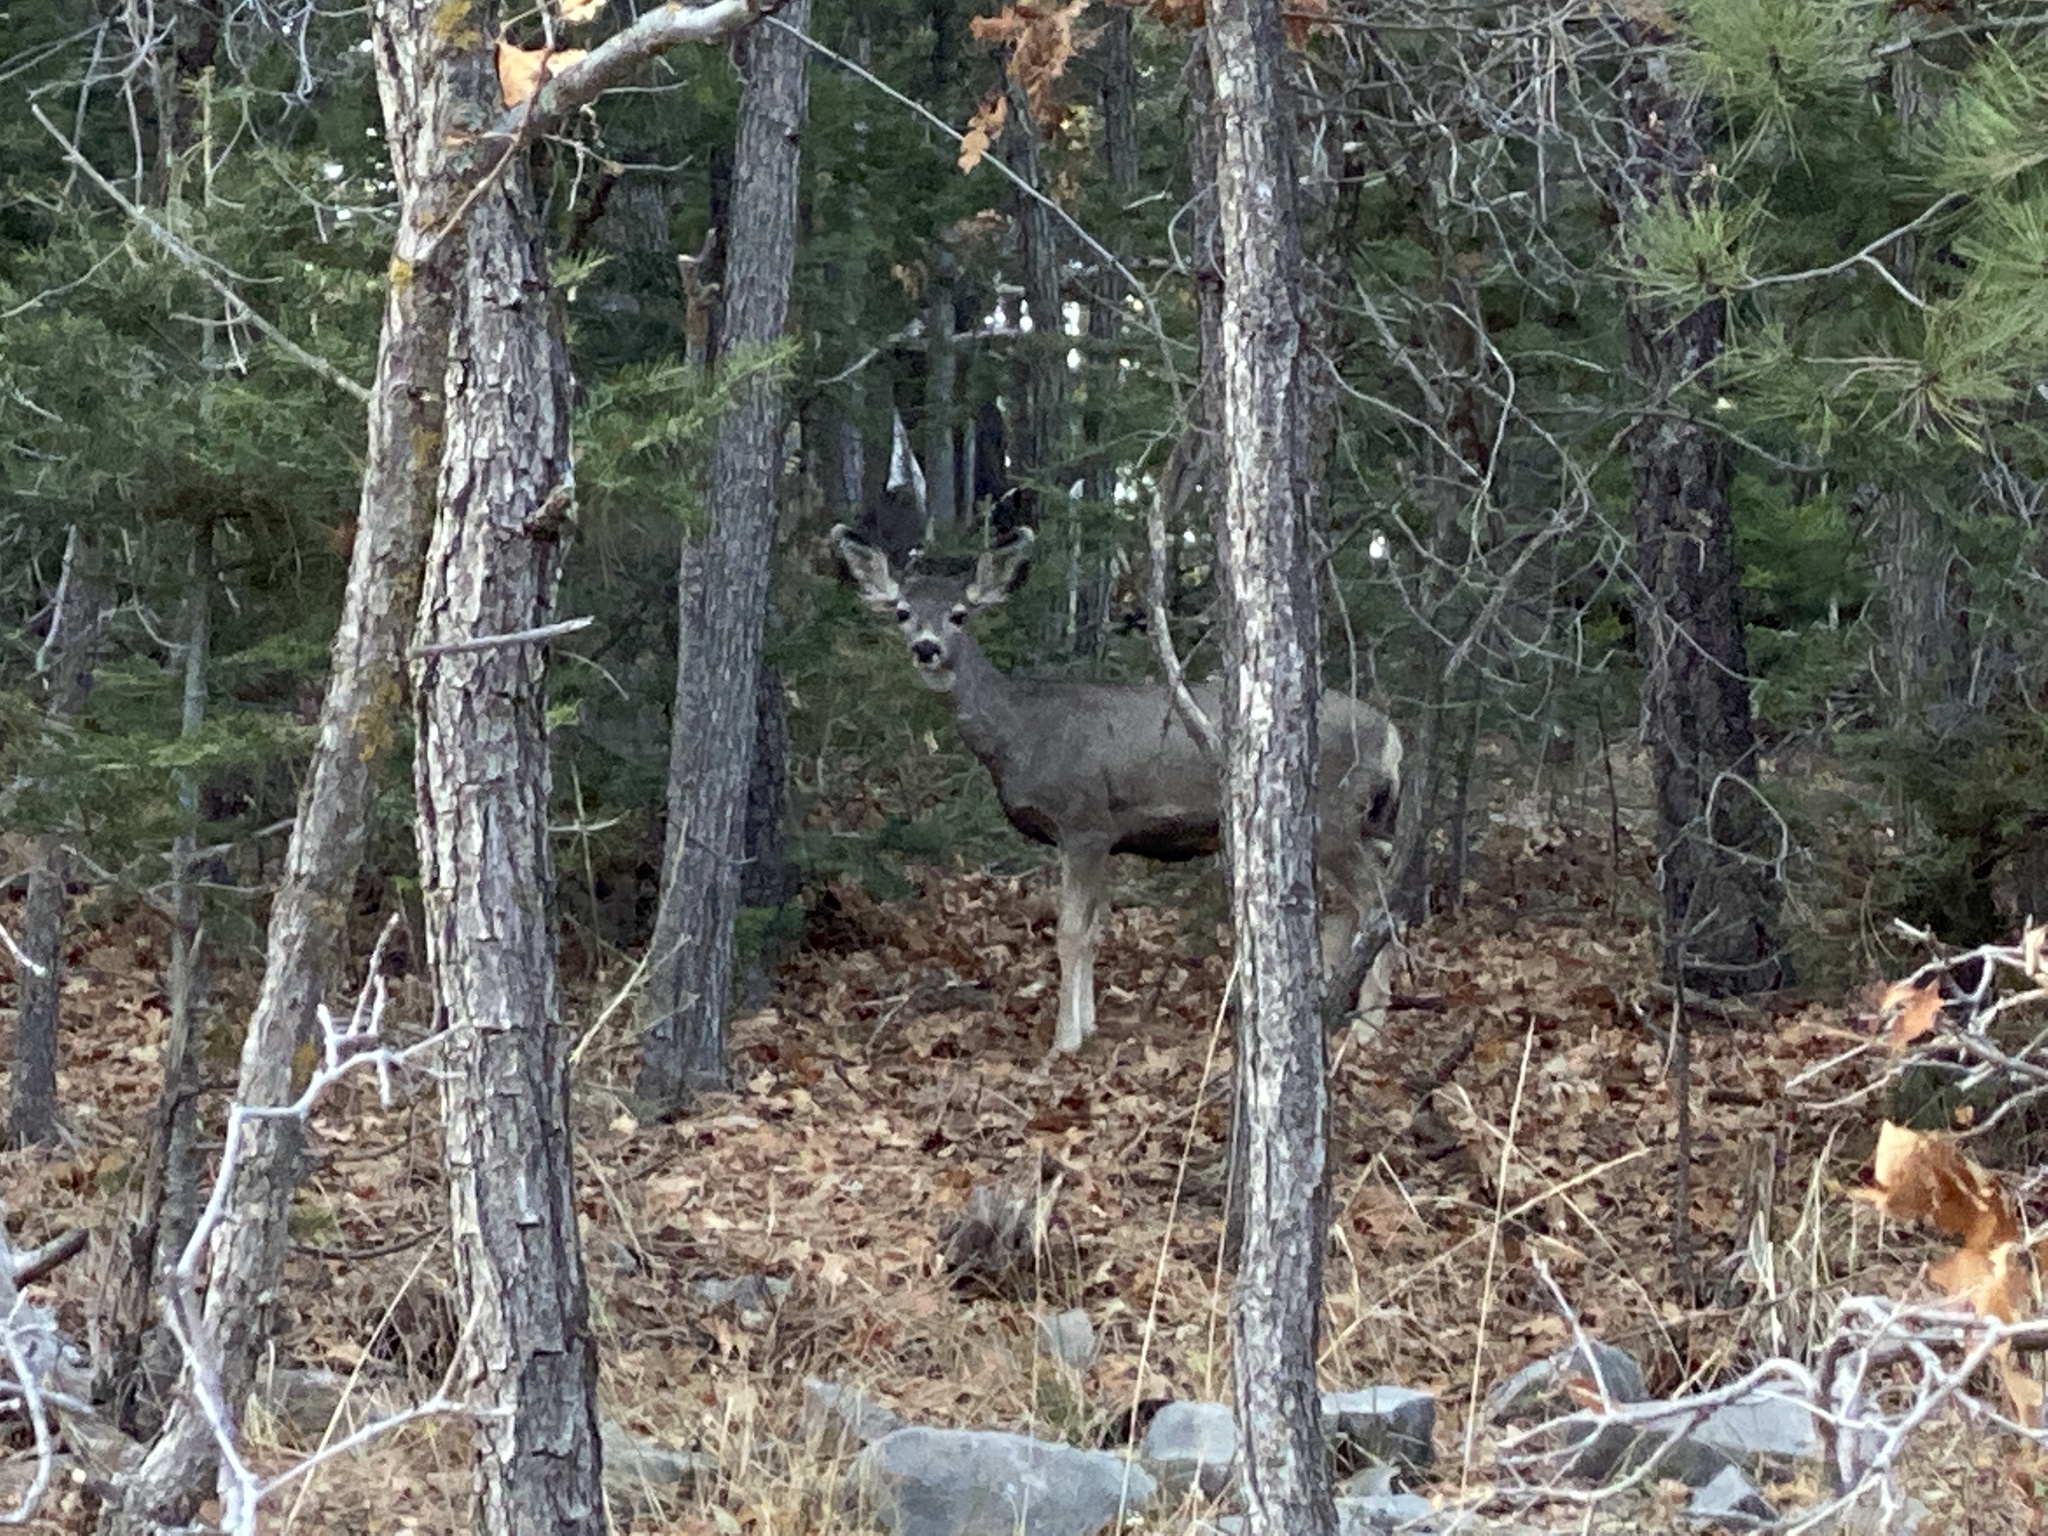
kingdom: Animalia
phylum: Chordata
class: Mammalia
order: Artiodactyla
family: Cervidae
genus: Odocoileus
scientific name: Odocoileus hemionus
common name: Mule deer
